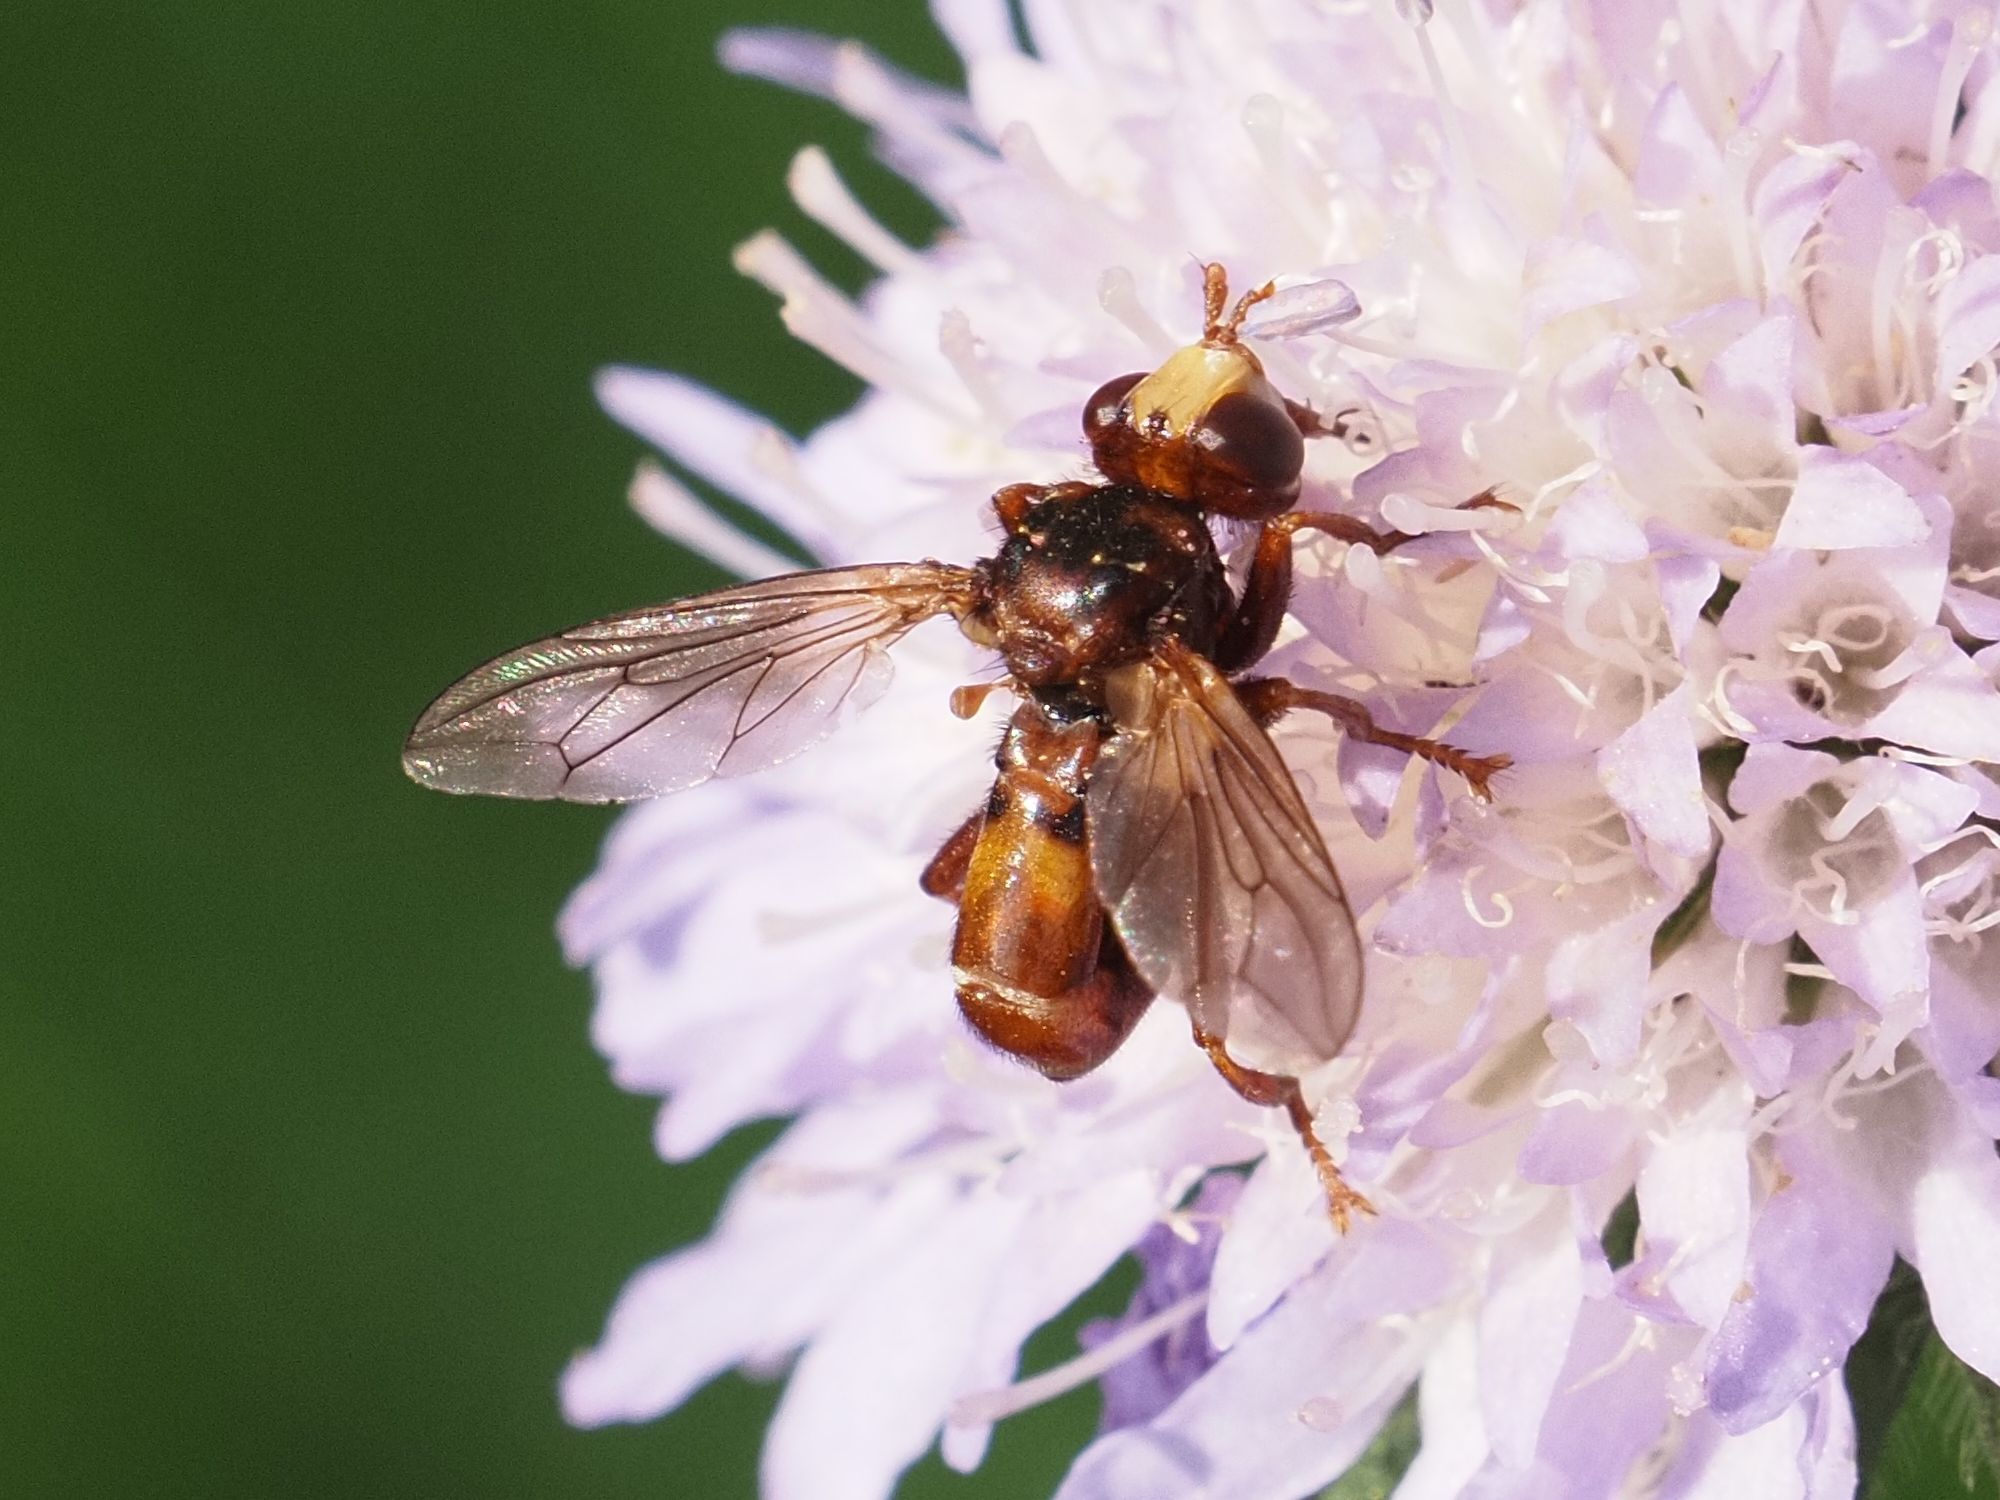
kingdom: Animalia
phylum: Arthropoda
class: Insecta
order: Diptera
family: Conopidae
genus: Sicus
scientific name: Sicus ferrugineus
